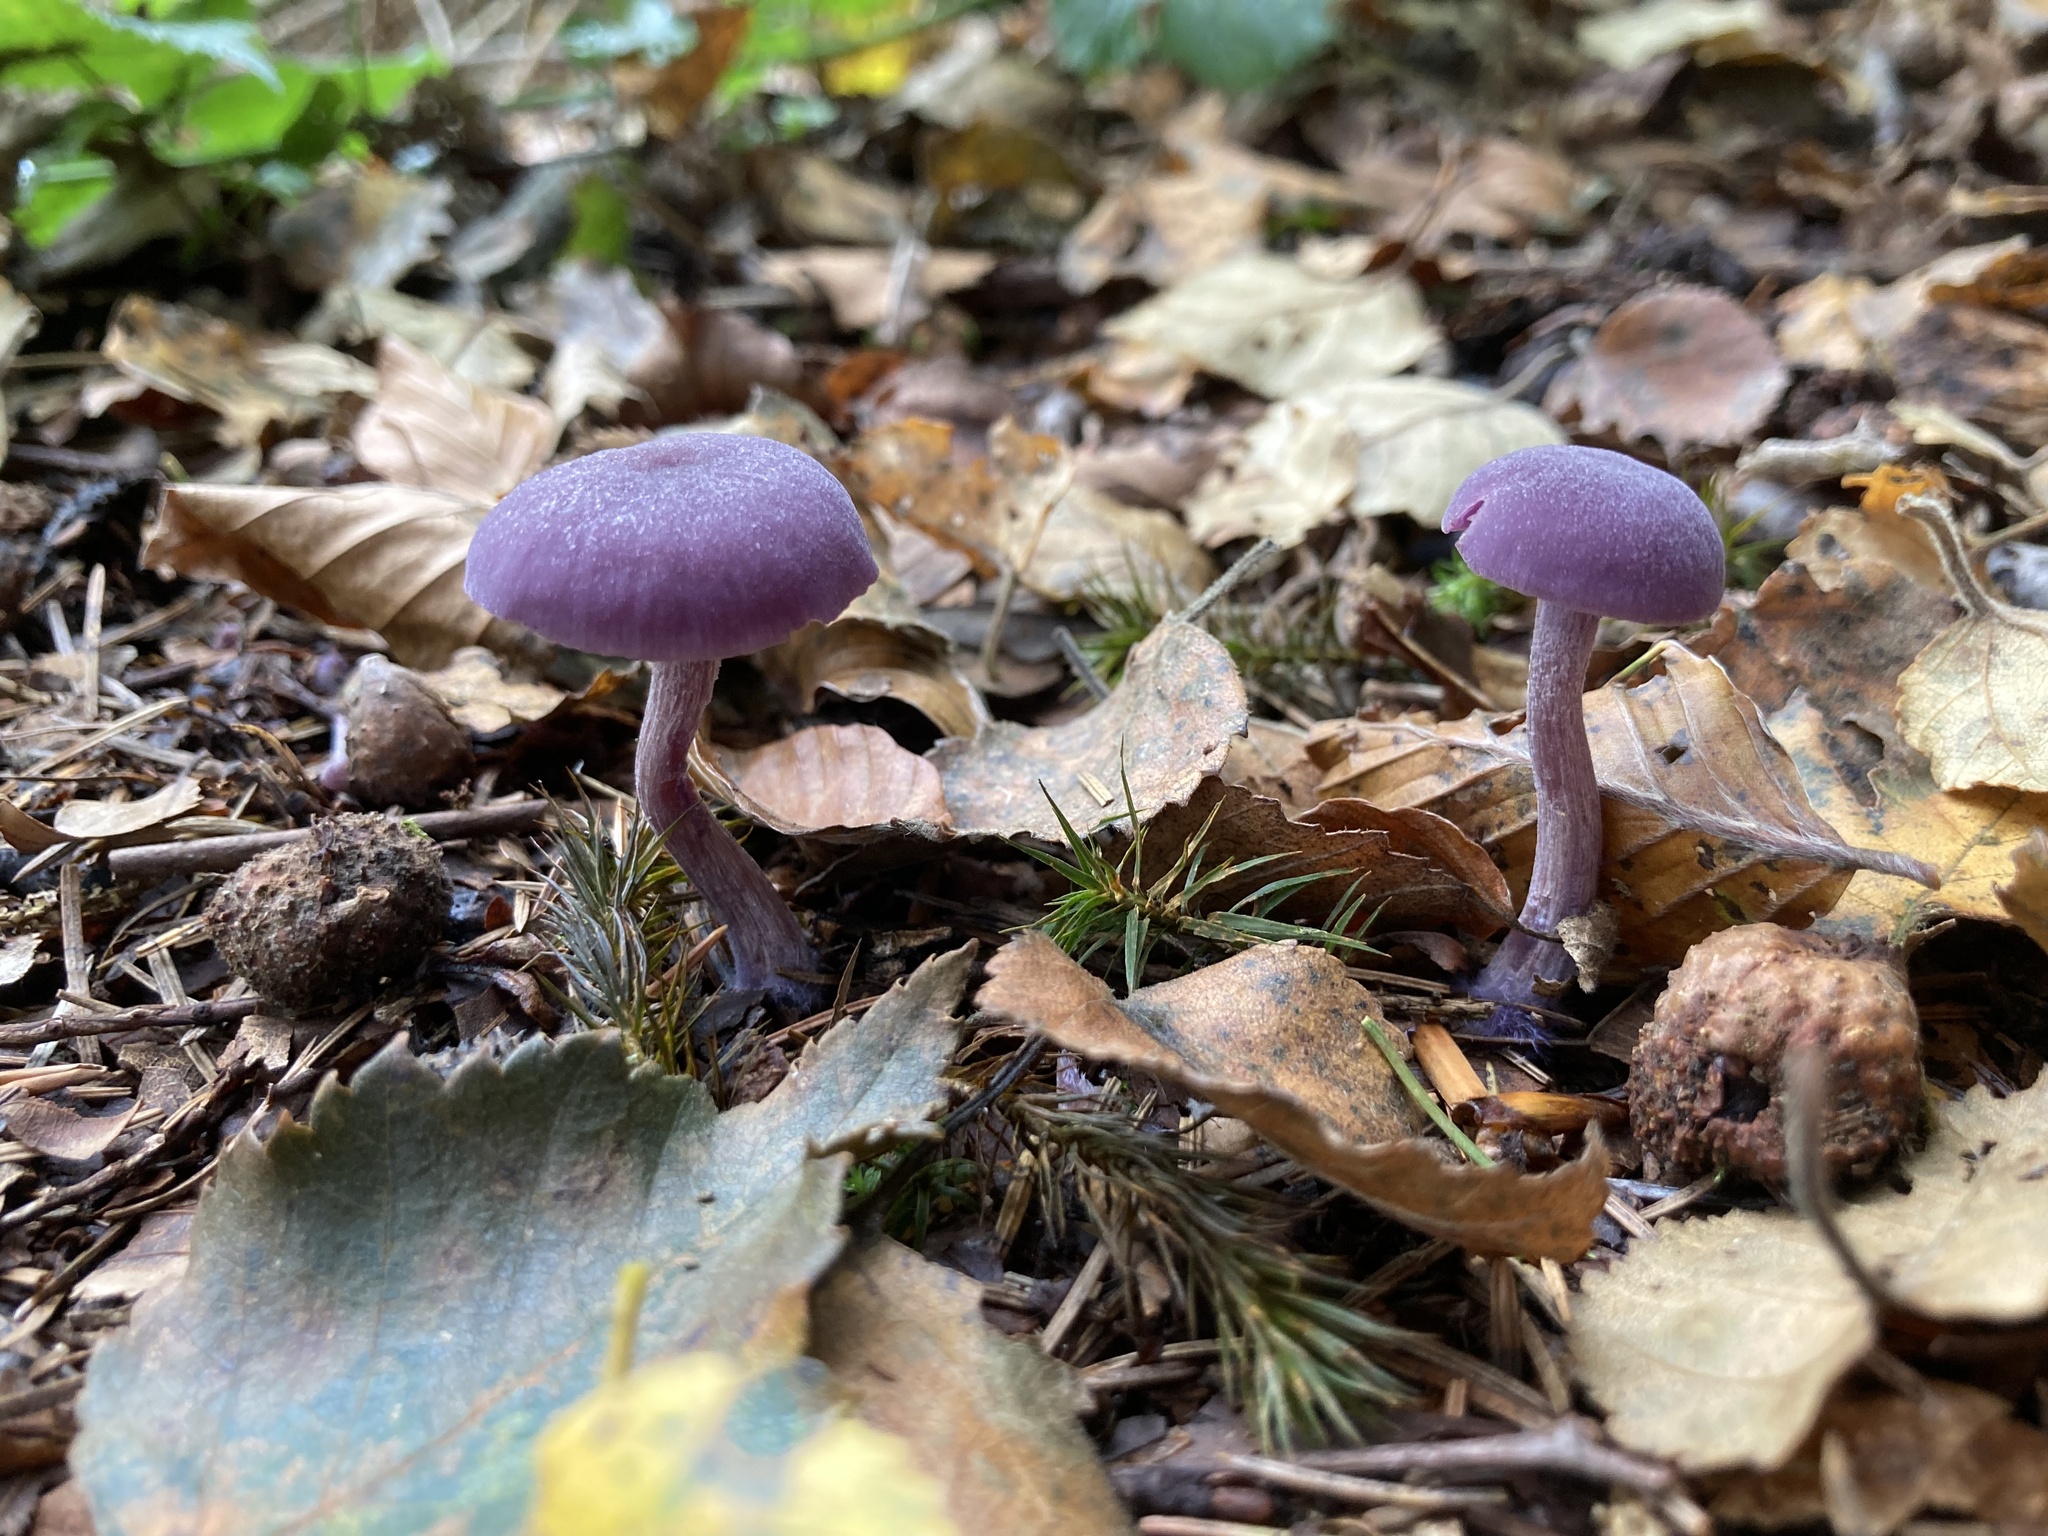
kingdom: Fungi
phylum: Basidiomycota
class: Agaricomycetes
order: Agaricales
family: Hydnangiaceae
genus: Laccaria
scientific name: Laccaria amethystina
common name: Amethyst deceiver
